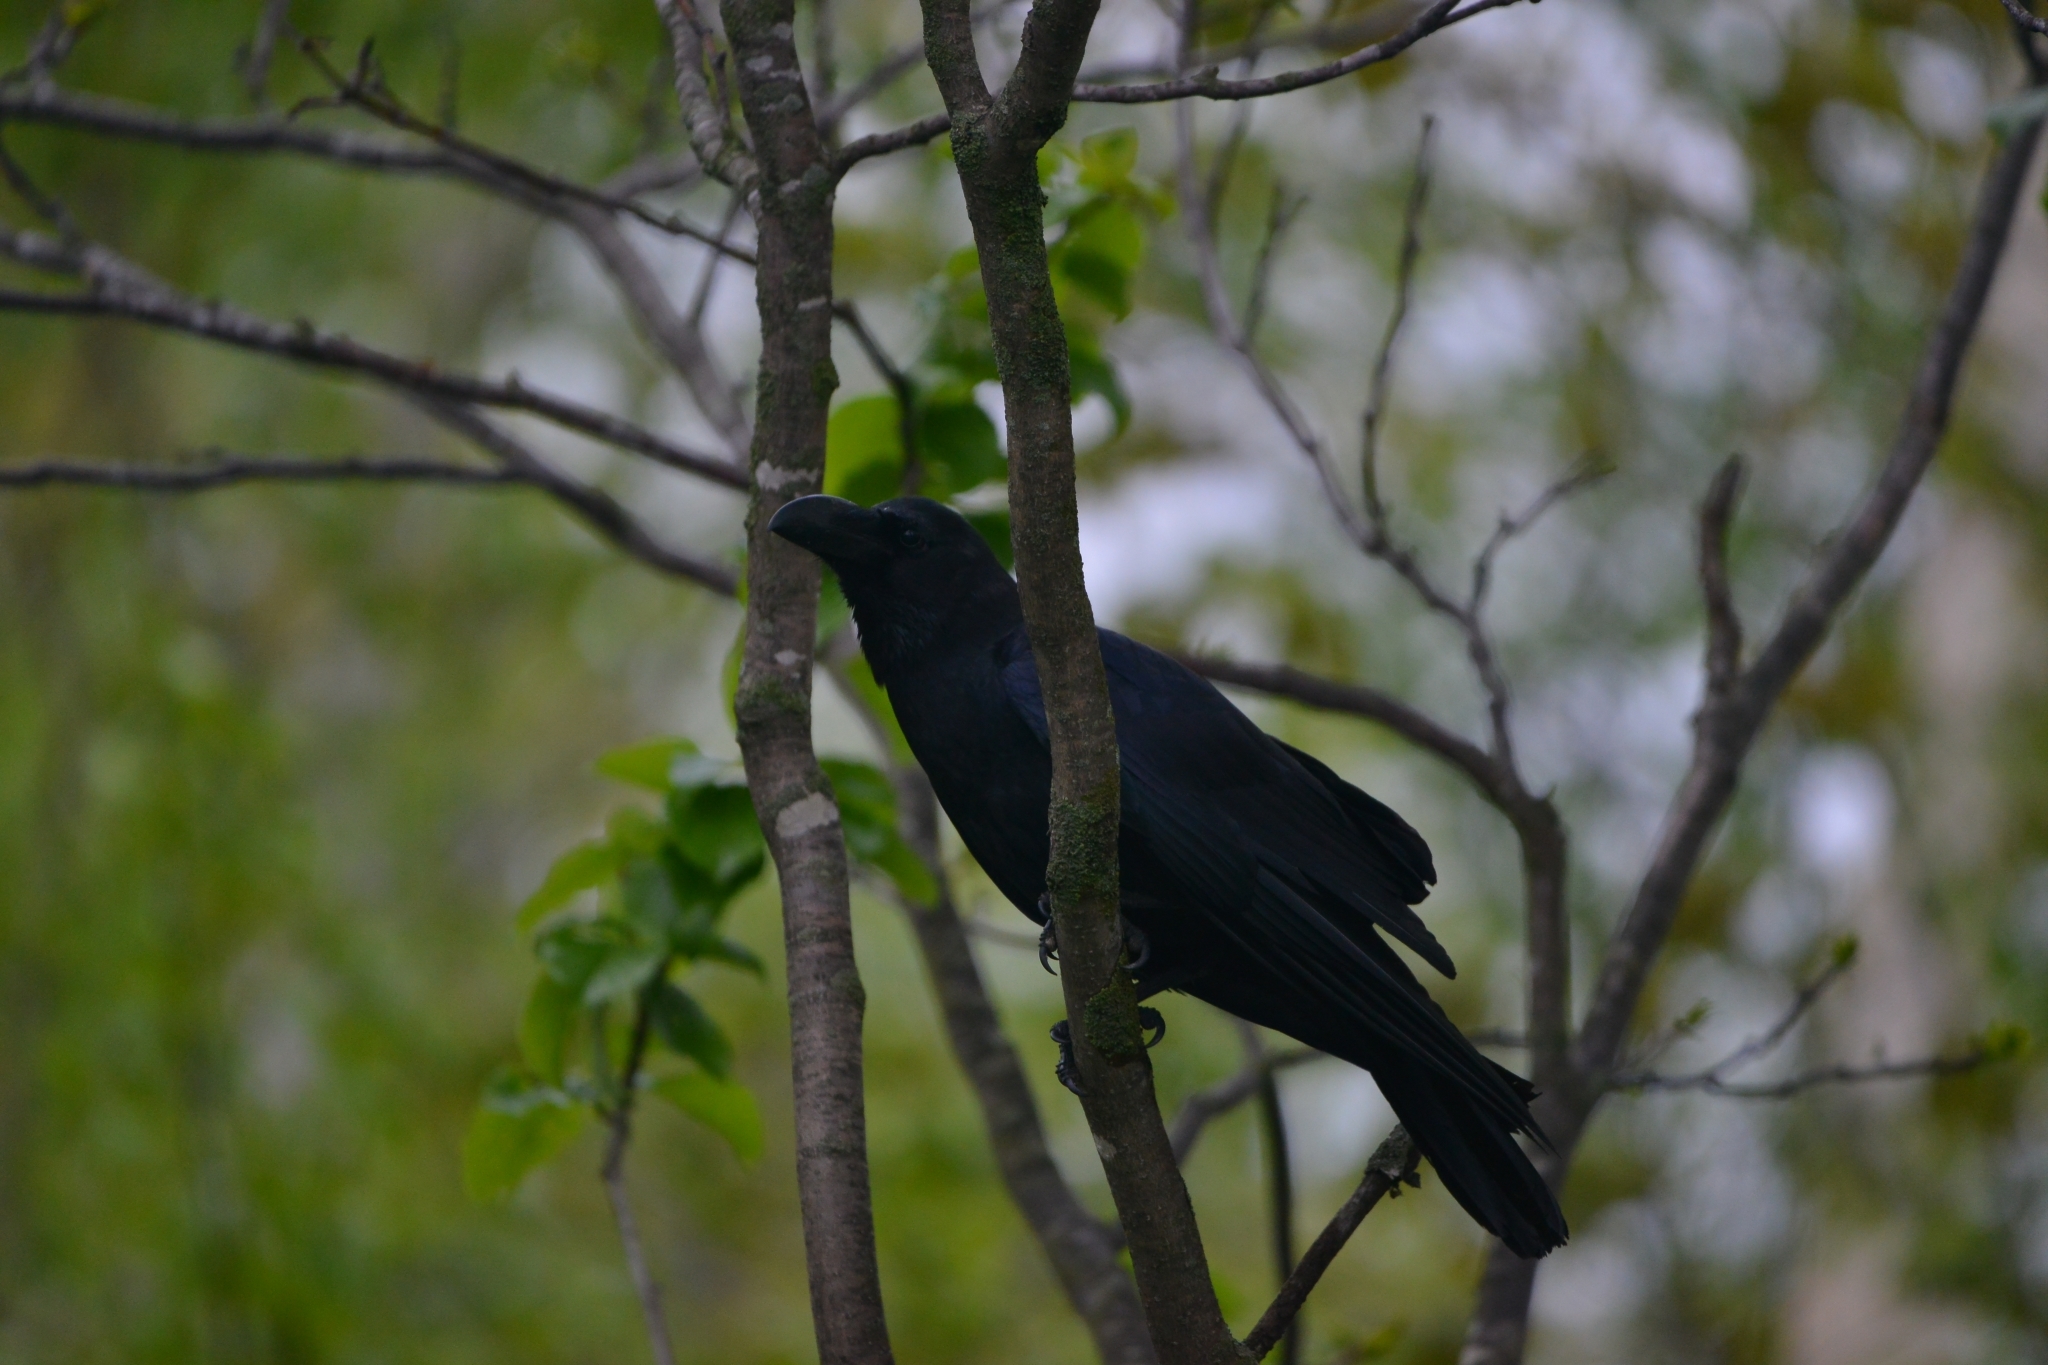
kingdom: Animalia
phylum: Chordata
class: Aves
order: Passeriformes
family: Corvidae
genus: Corvus
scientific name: Corvus macrorhynchos
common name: Large-billed crow
